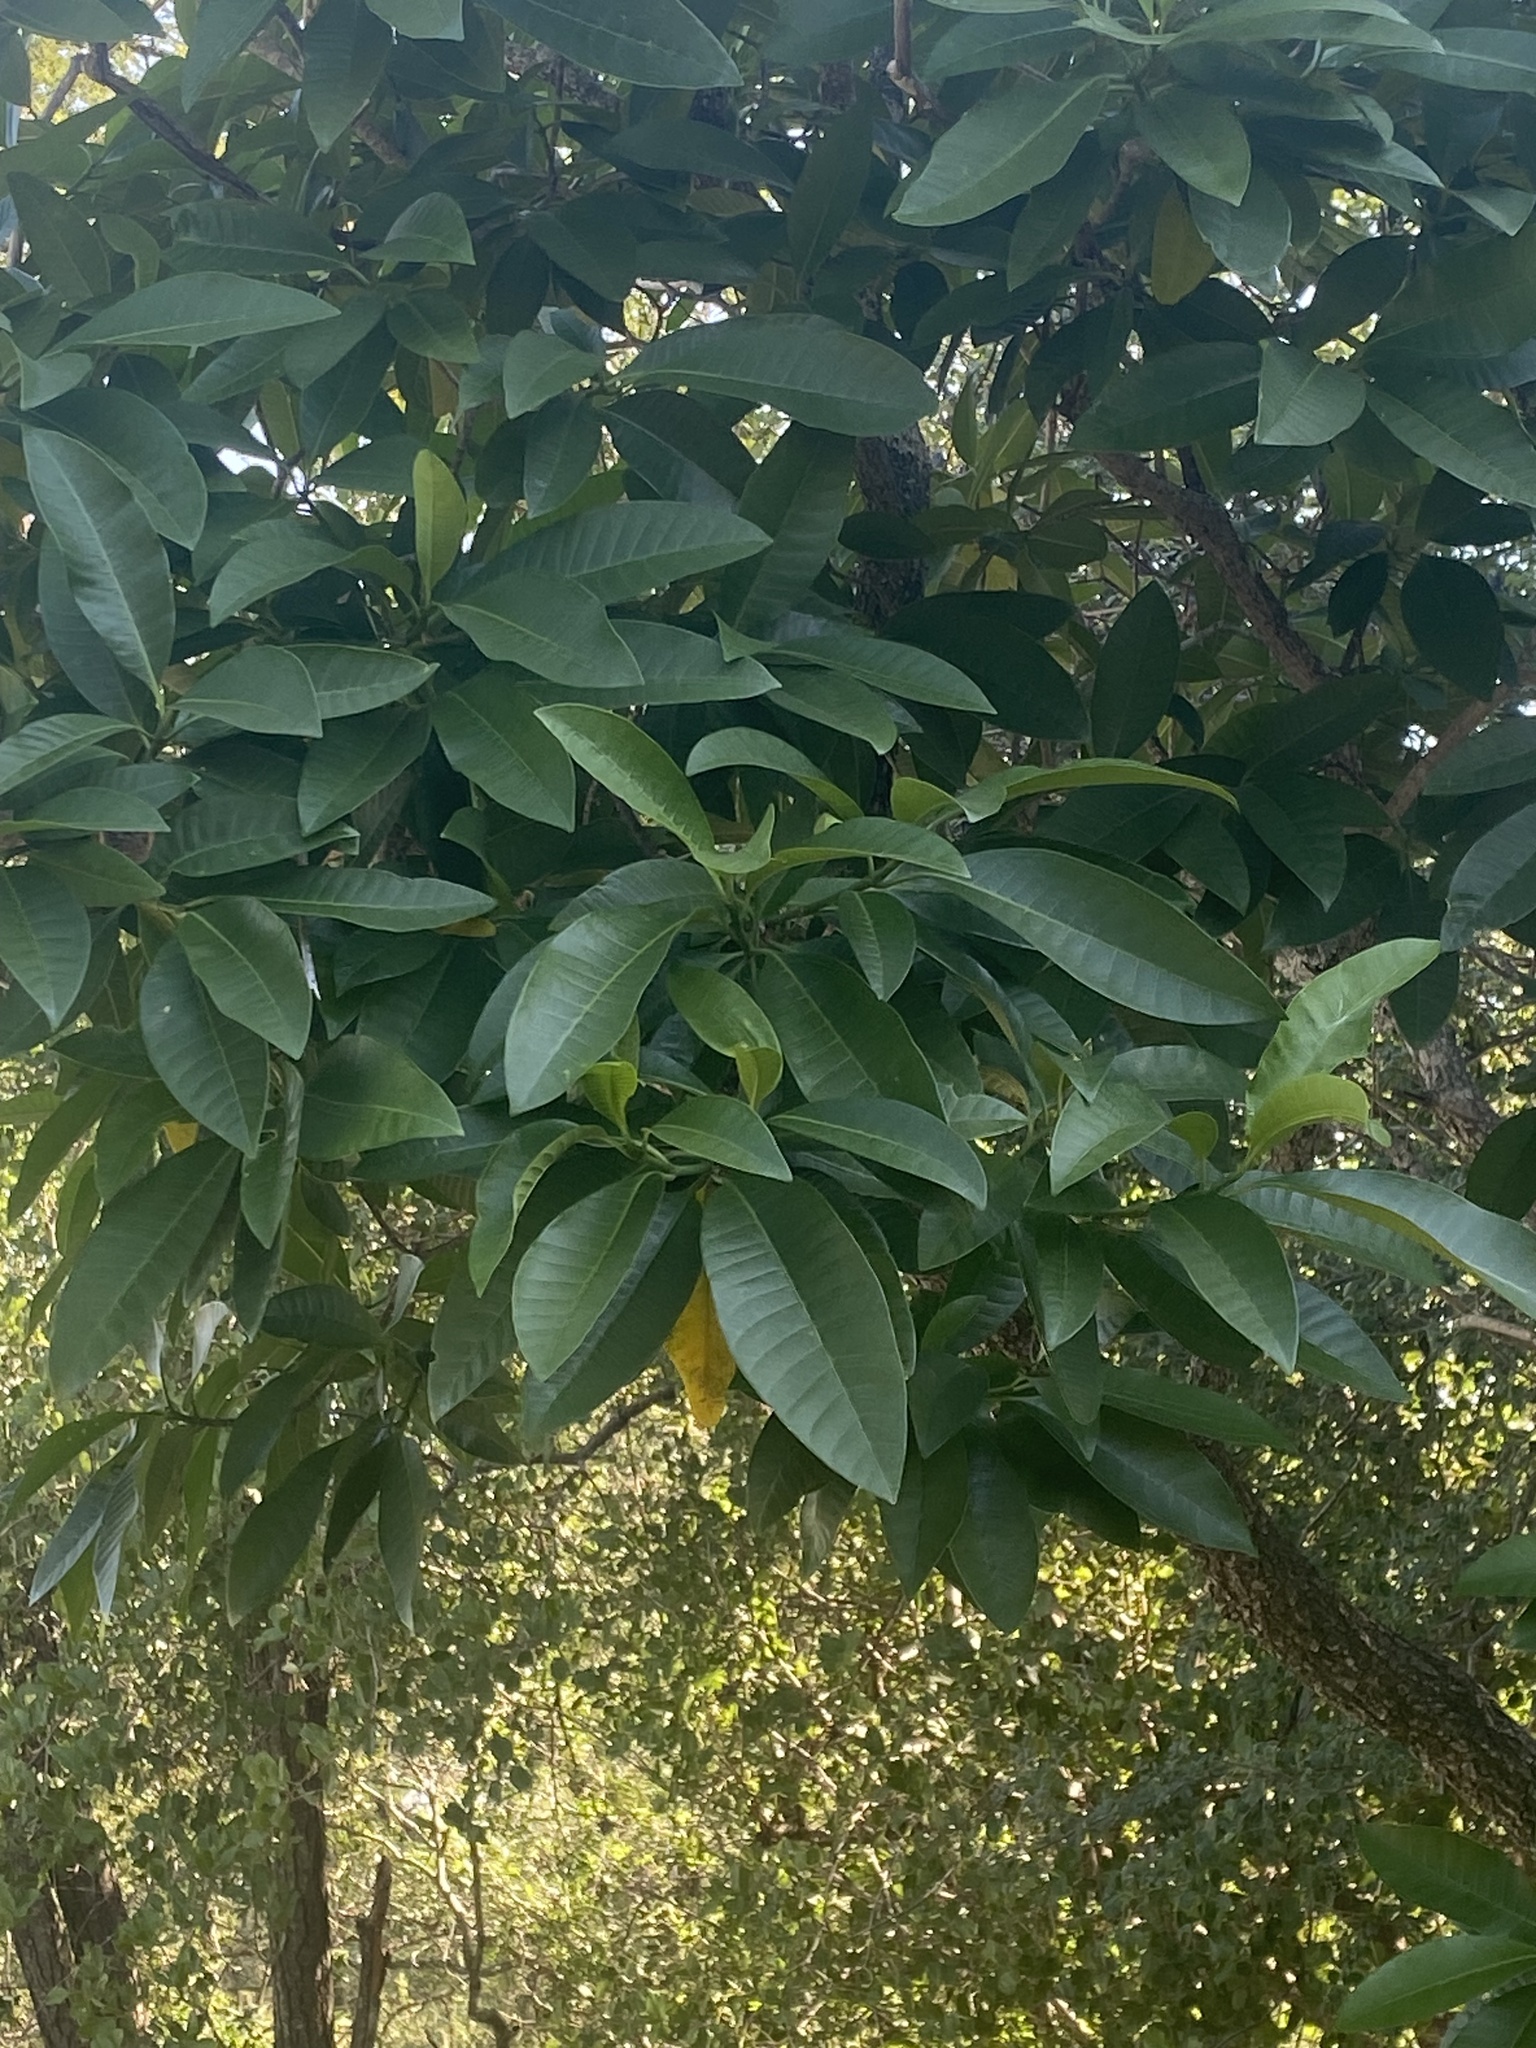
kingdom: Plantae
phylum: Tracheophyta
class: Magnoliopsida
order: Gentianales
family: Apocynaceae
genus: Tabernaemontana
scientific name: Tabernaemontana elegans
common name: Toadtree
